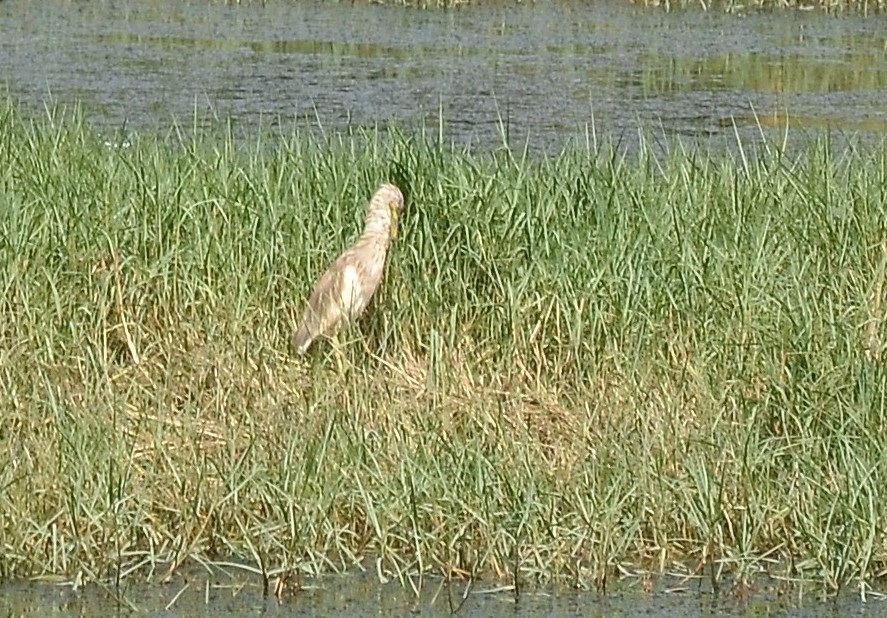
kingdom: Animalia
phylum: Chordata
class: Aves
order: Pelecaniformes
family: Ardeidae
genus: Ardeola
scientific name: Ardeola grayii
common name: Indian pond heron
